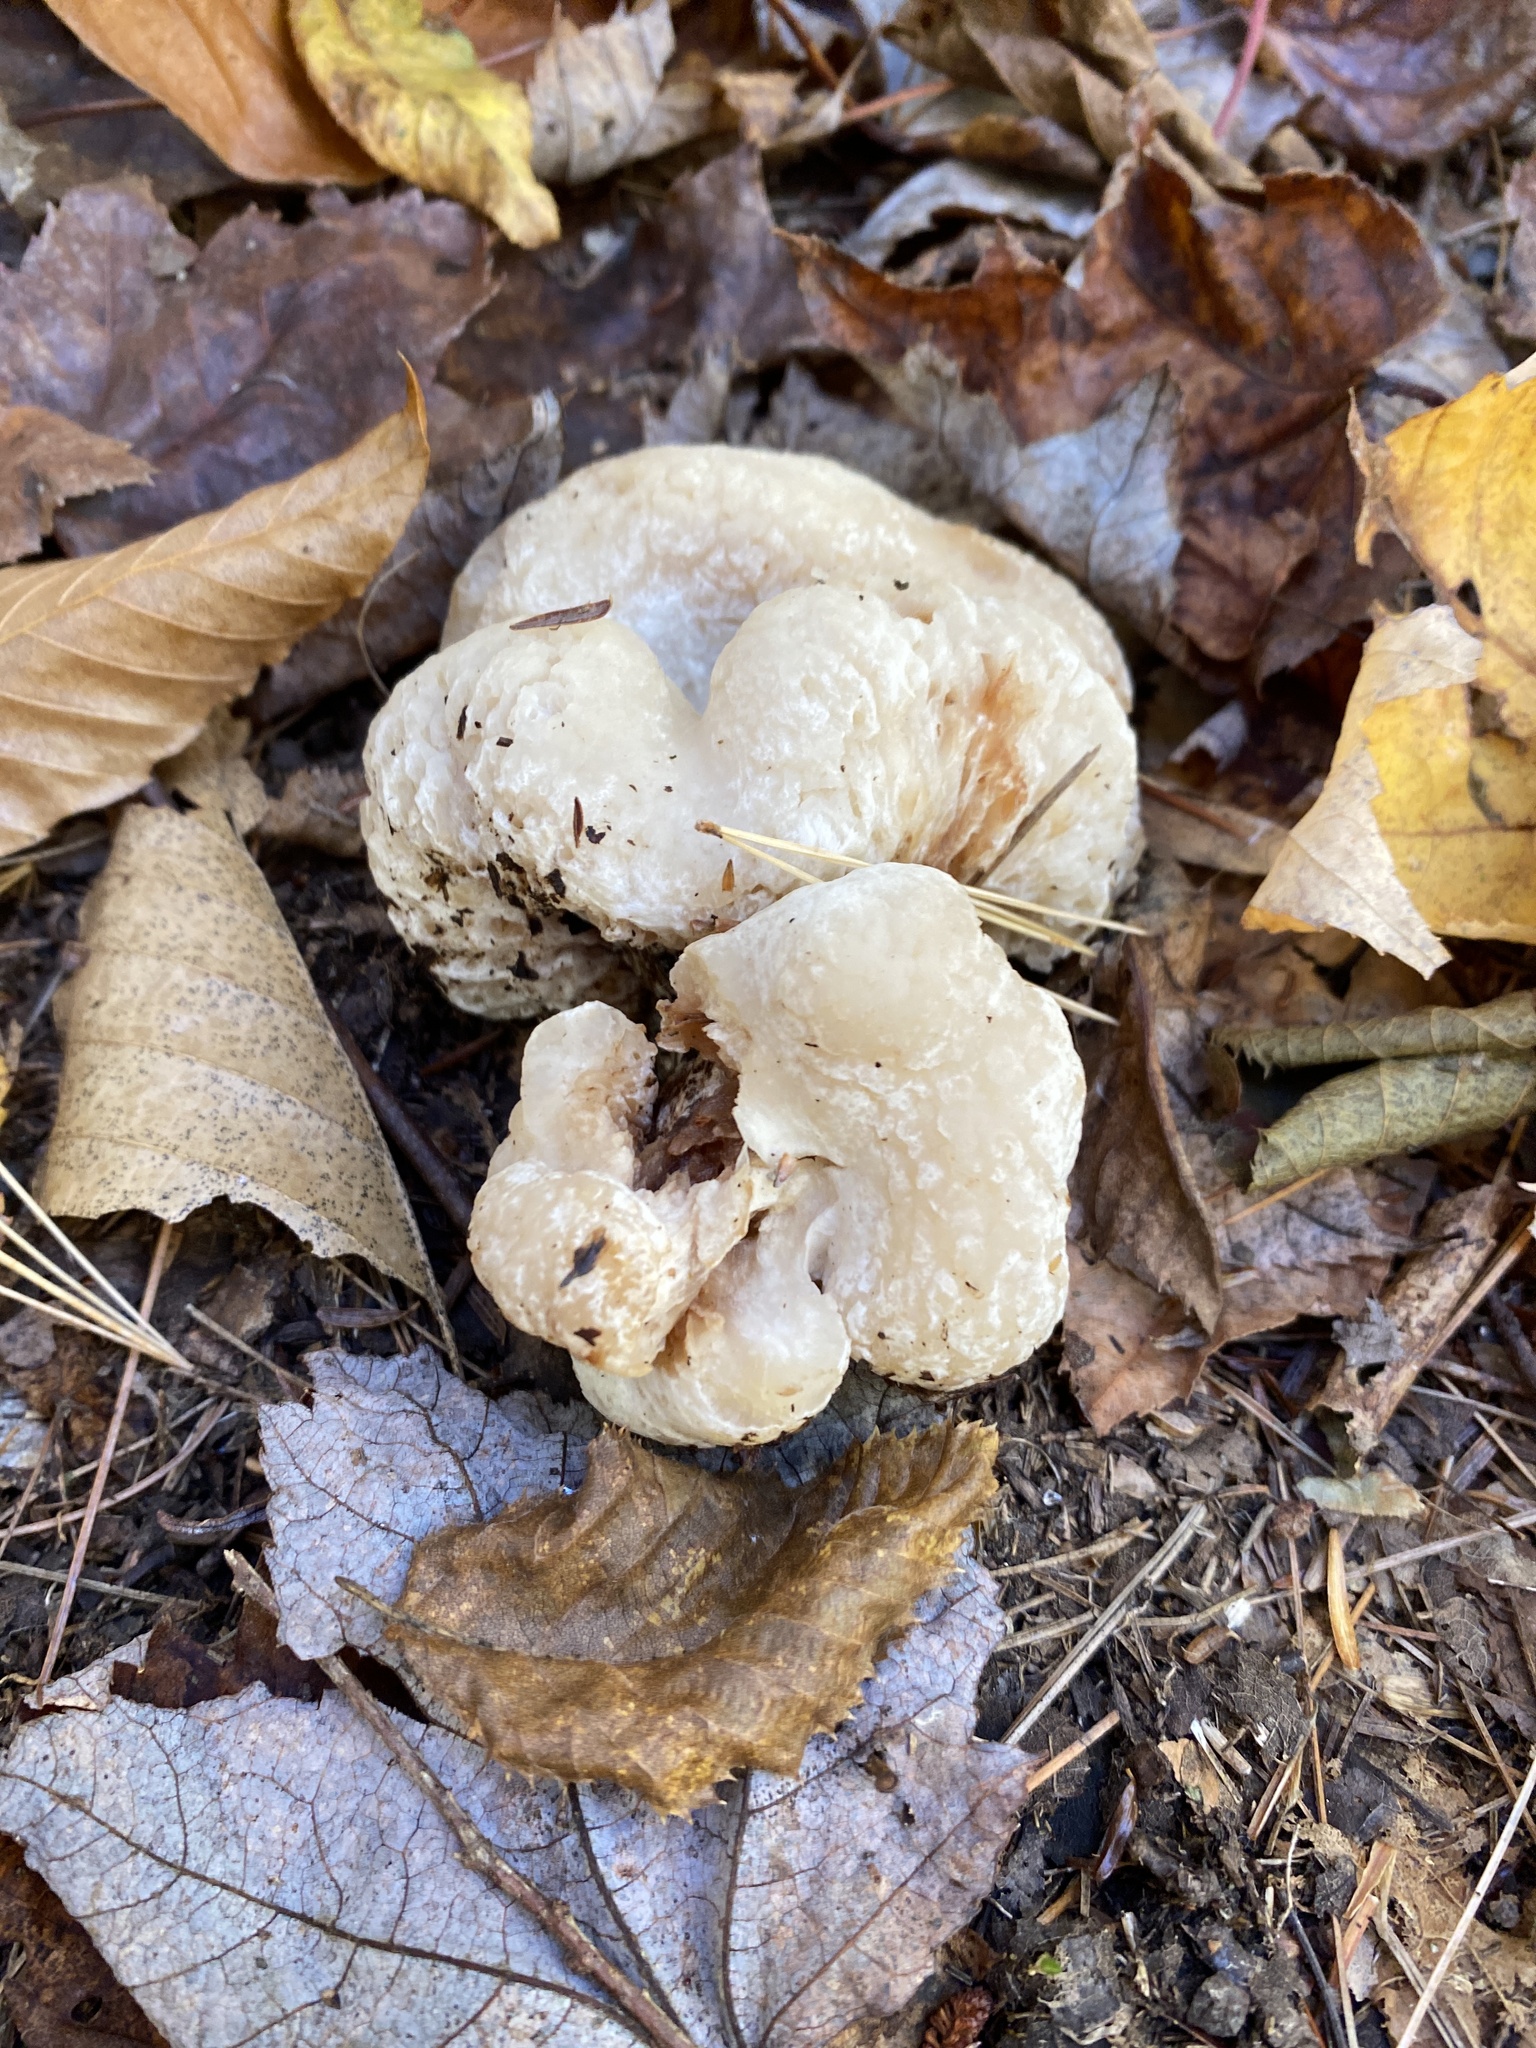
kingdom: Fungi
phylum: Basidiomycota
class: Agaricomycetes
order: Agaricales
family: Entolomataceae
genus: Entoloma
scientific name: Entoloma abortivum
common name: Aborted entoloma
